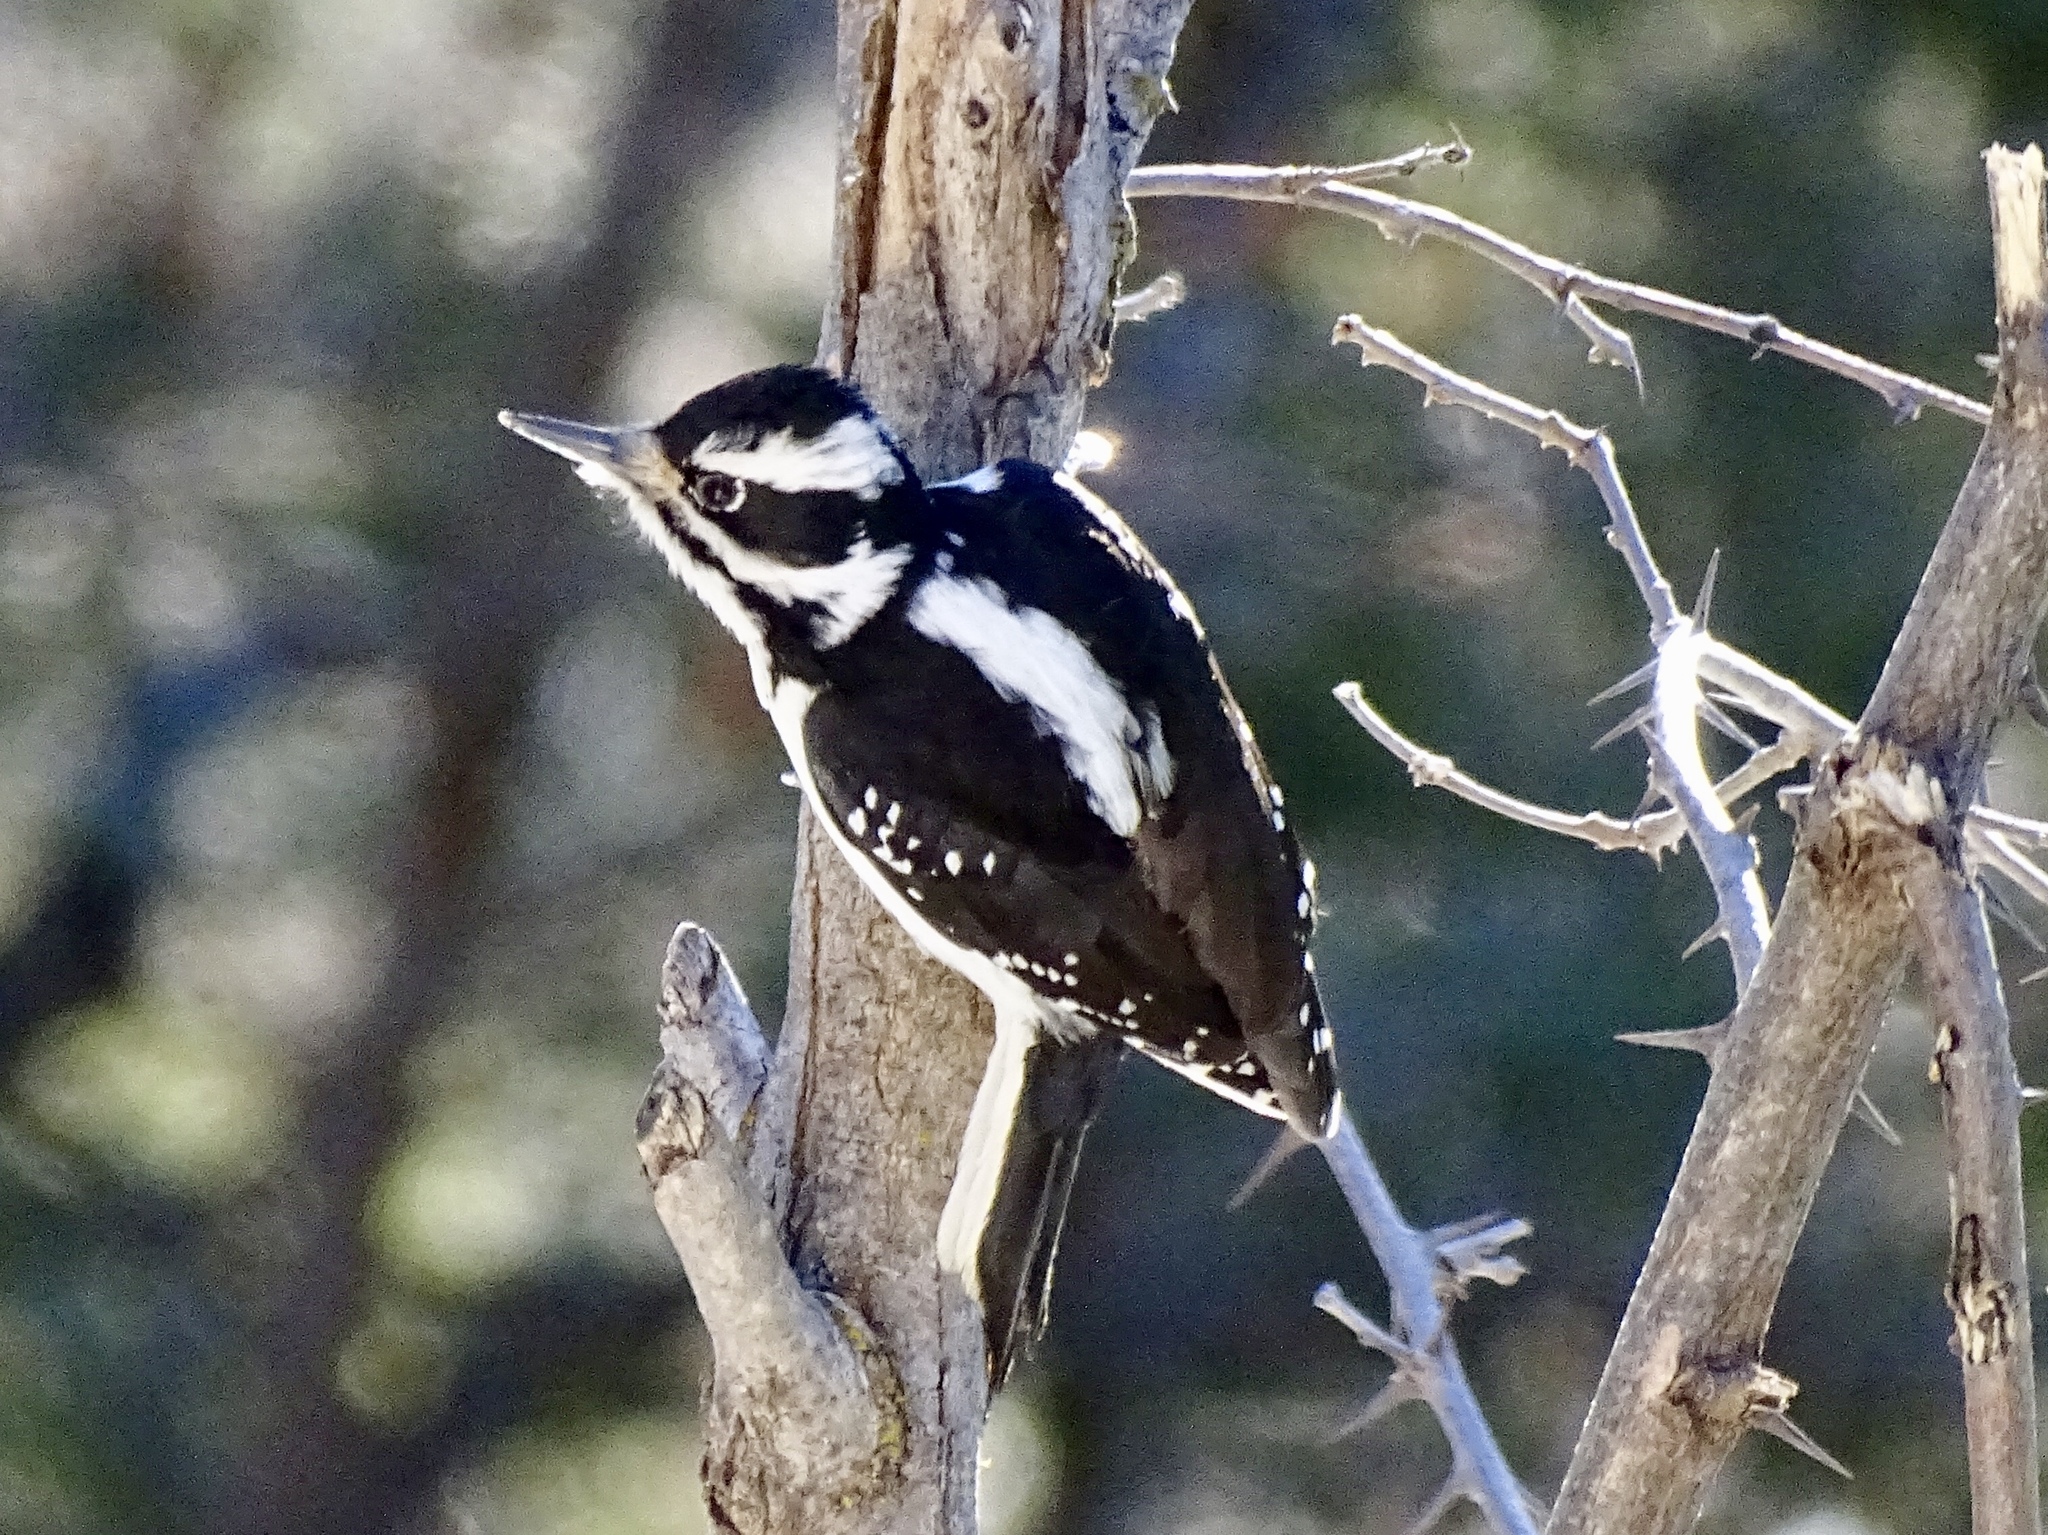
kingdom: Animalia
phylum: Chordata
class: Aves
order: Piciformes
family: Picidae
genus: Leuconotopicus
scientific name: Leuconotopicus villosus
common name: Hairy woodpecker
